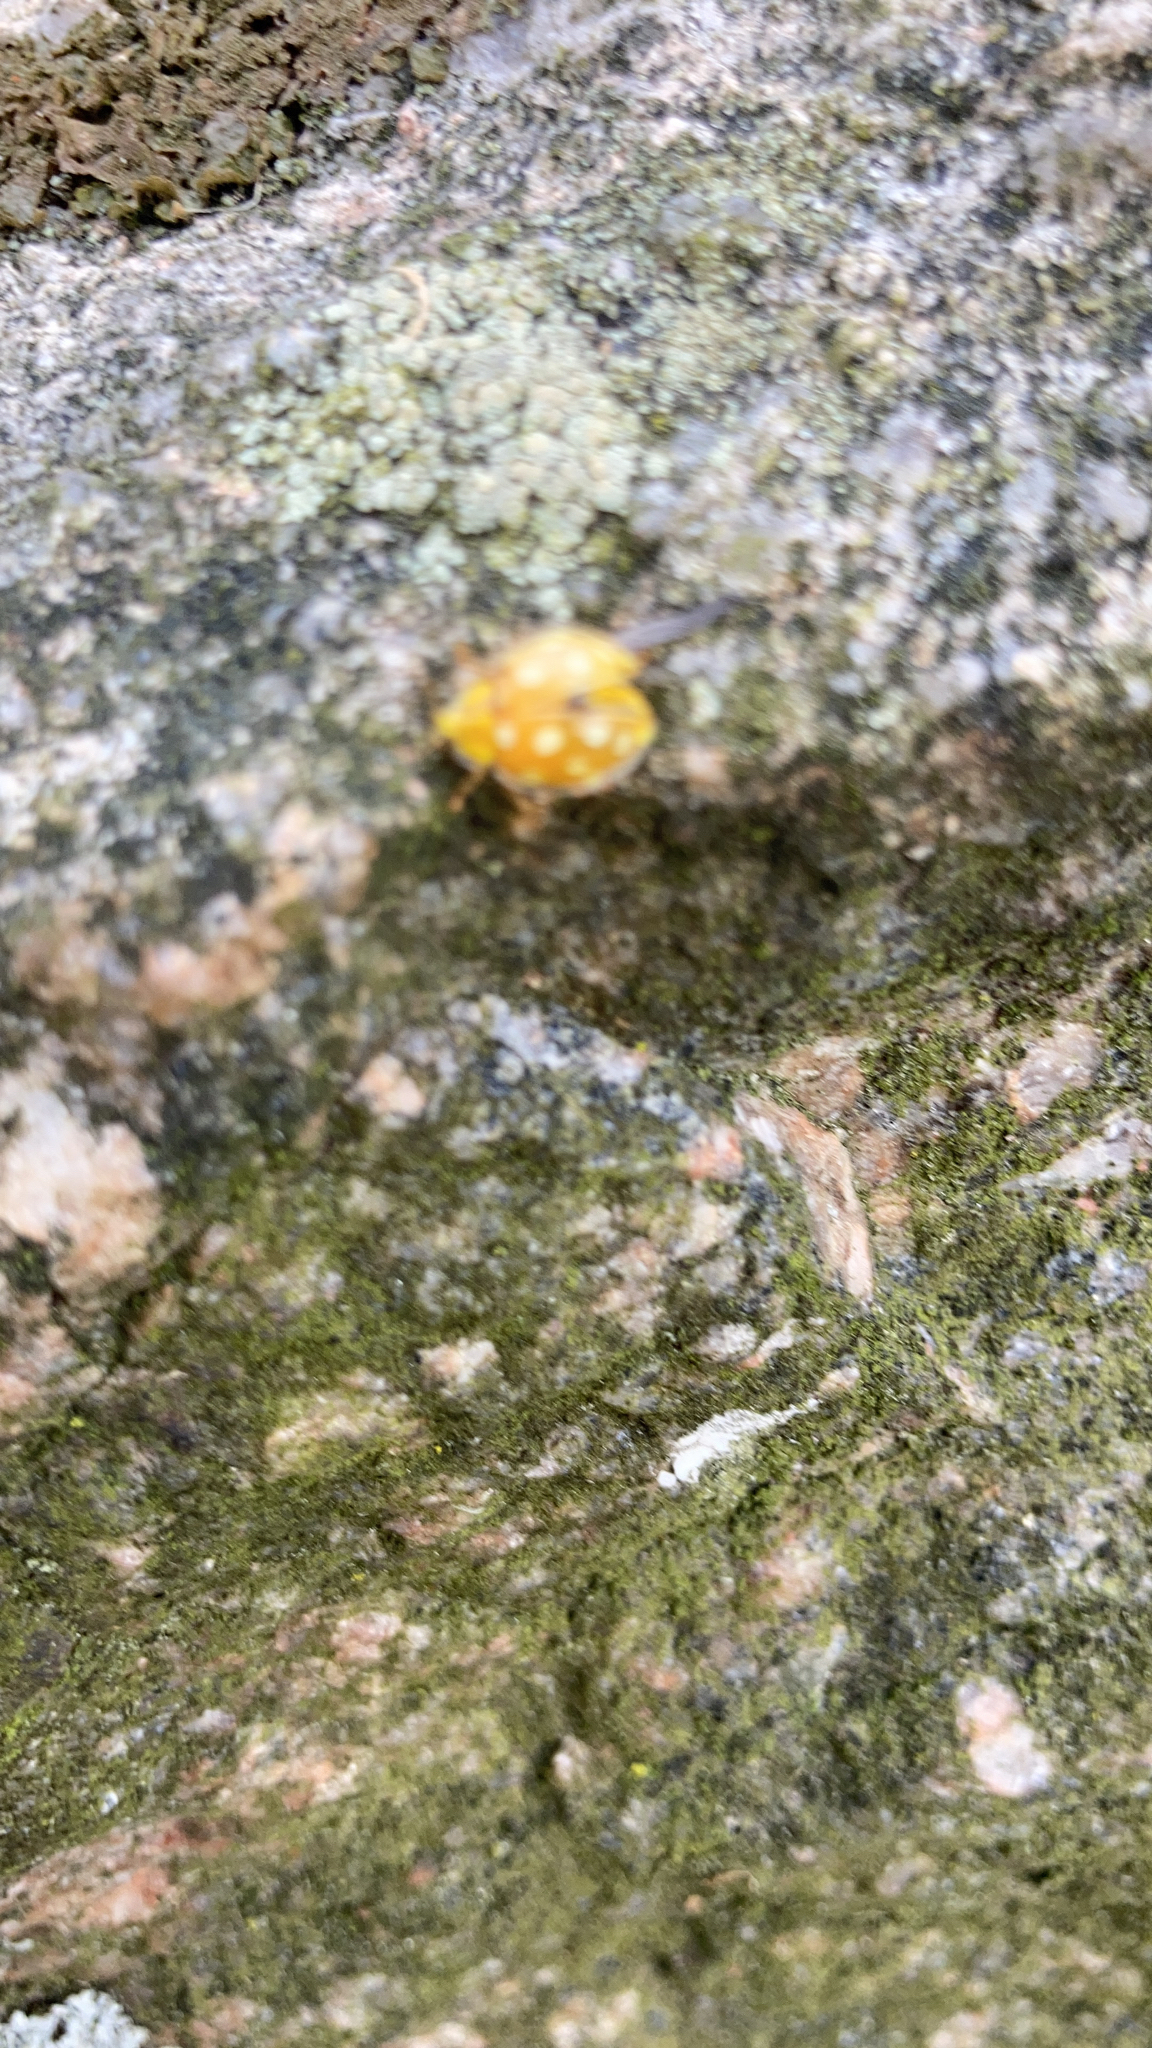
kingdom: Animalia
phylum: Arthropoda
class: Insecta
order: Coleoptera
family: Coccinellidae
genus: Halyzia
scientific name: Halyzia sedecimguttata
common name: Orange ladybird
